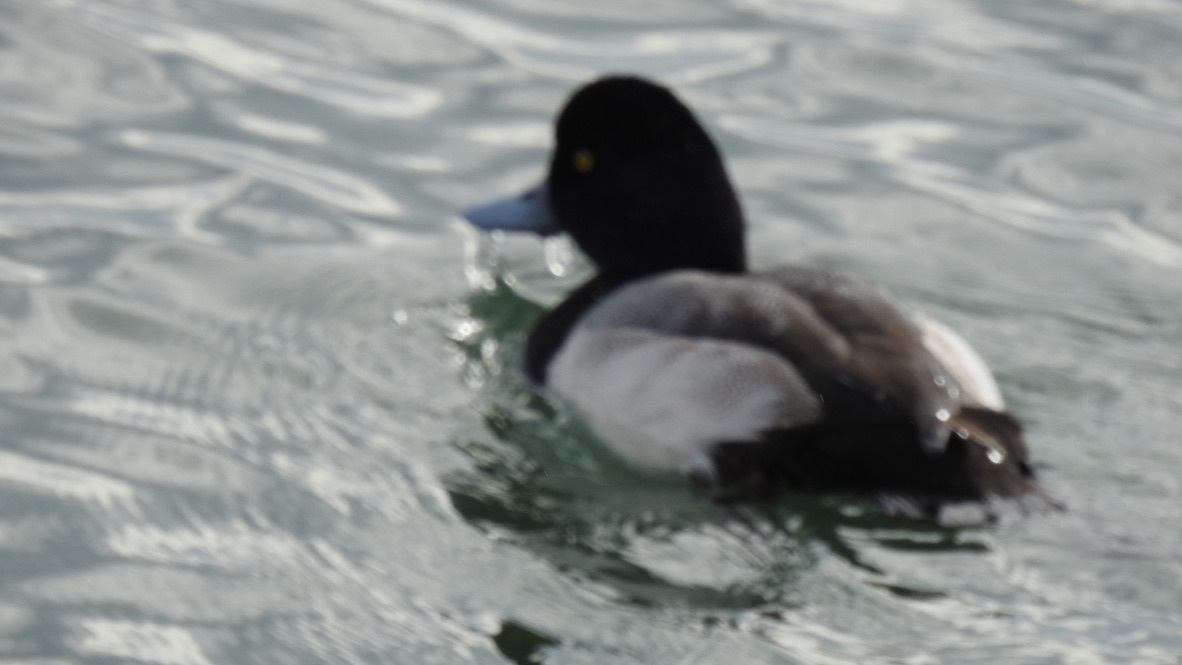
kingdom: Animalia
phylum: Chordata
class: Aves
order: Anseriformes
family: Anatidae
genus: Aythya
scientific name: Aythya marila
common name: Greater scaup
